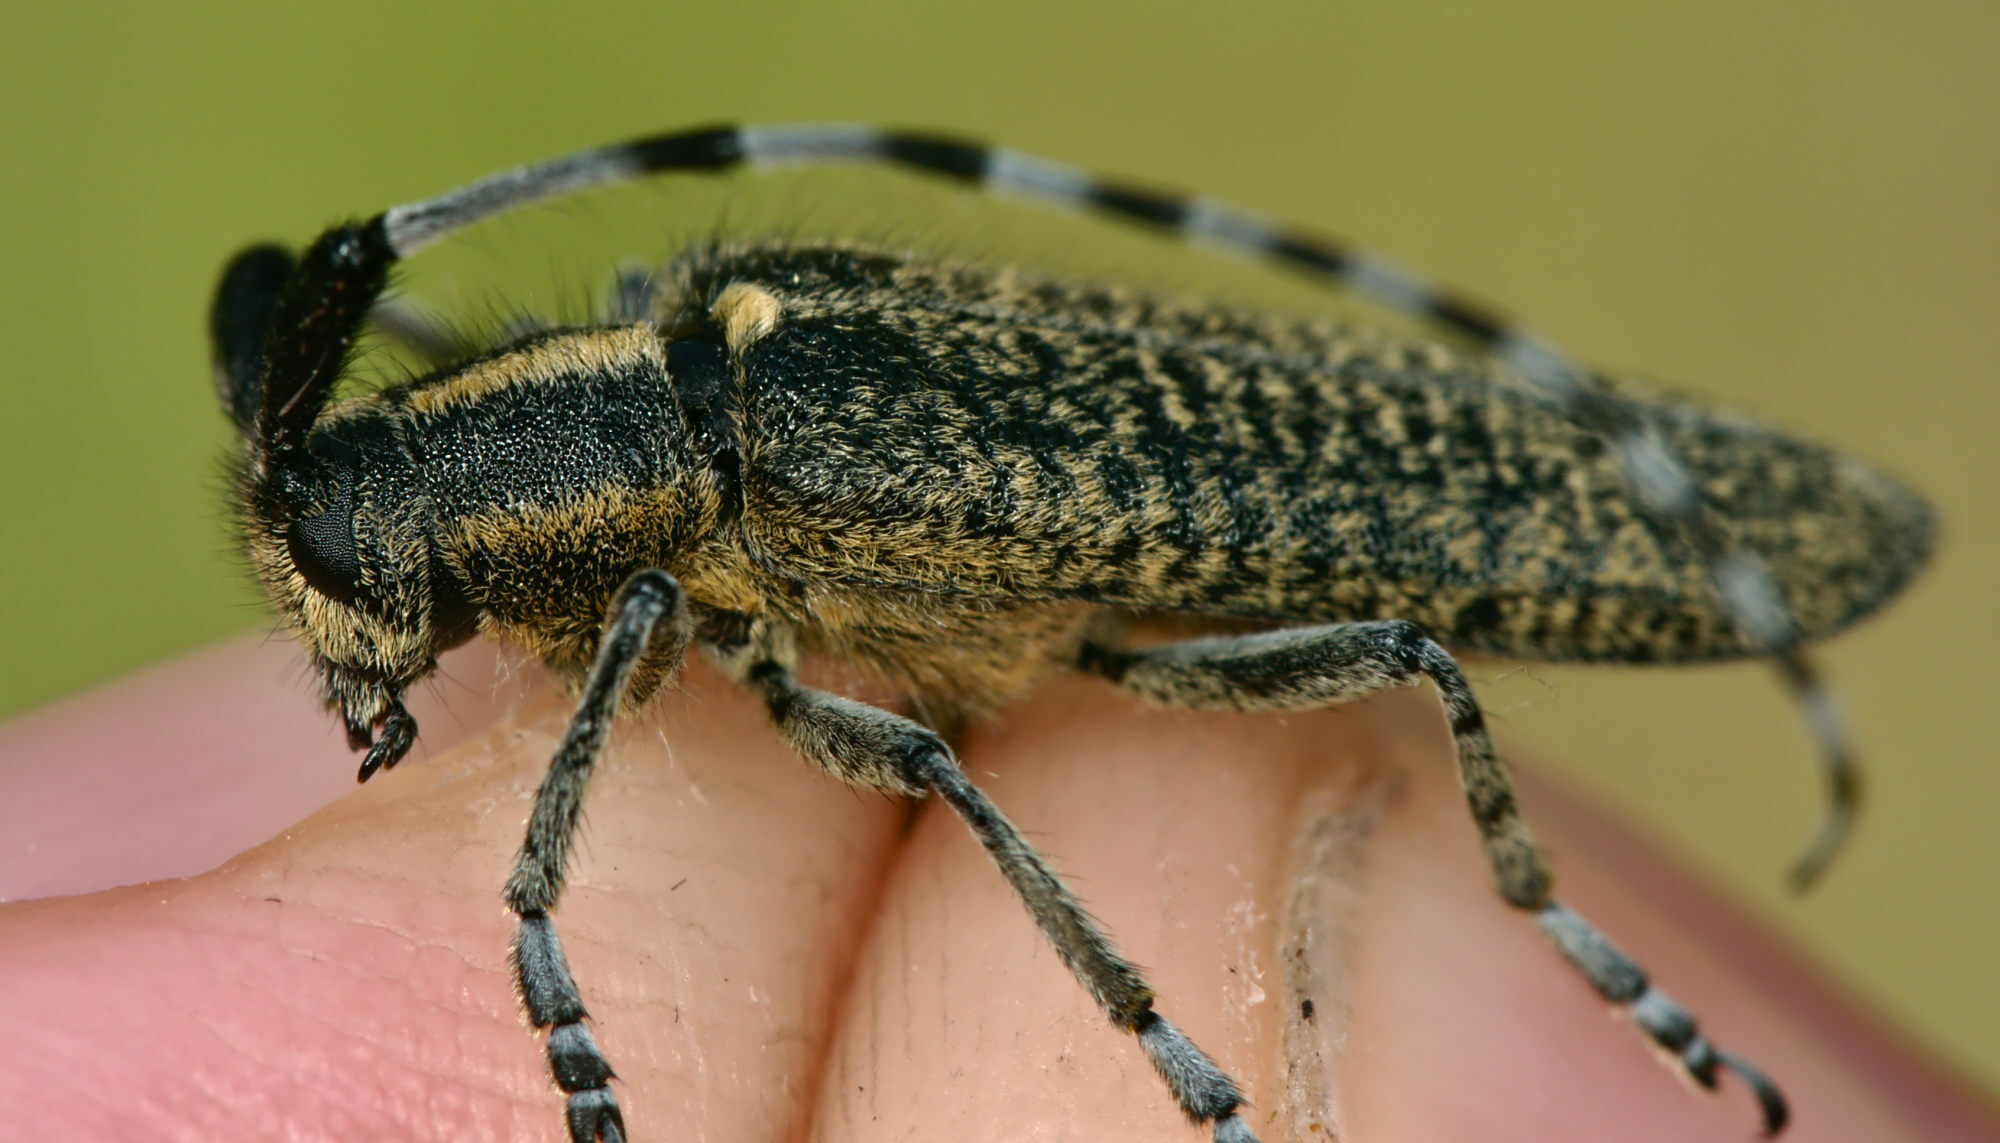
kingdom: Animalia
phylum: Arthropoda
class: Insecta
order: Coleoptera
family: Cerambycidae
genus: Agapanthia
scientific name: Agapanthia villosoviridescens
